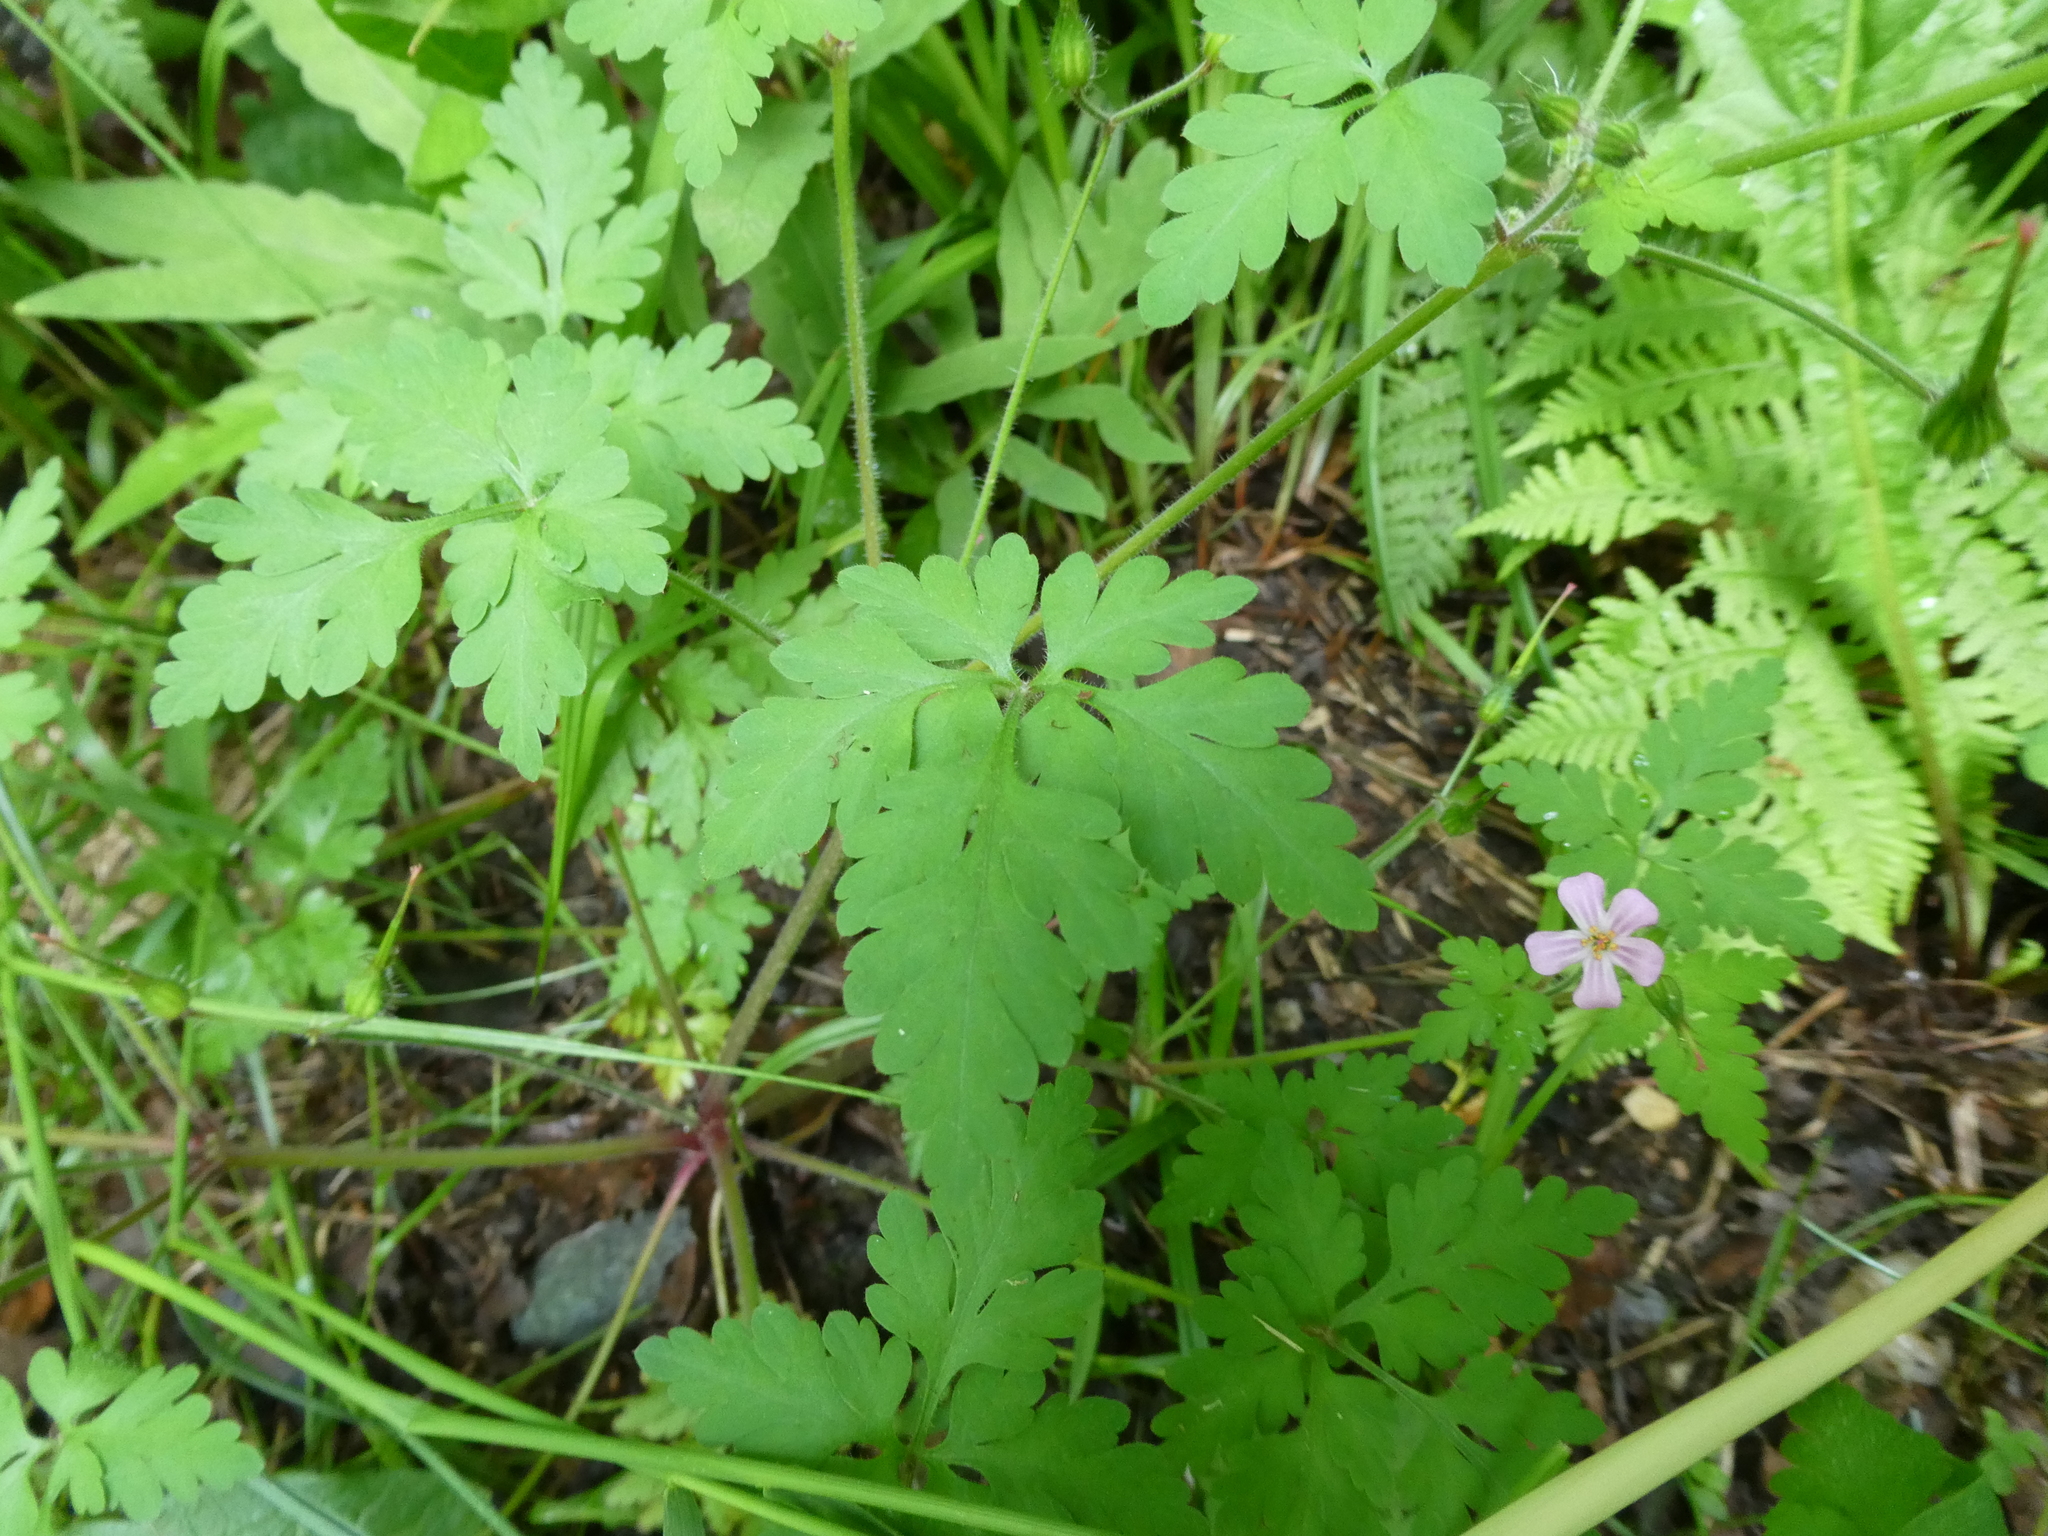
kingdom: Plantae
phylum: Tracheophyta
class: Magnoliopsida
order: Geraniales
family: Geraniaceae
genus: Geranium
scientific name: Geranium robertianum
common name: Herb-robert
